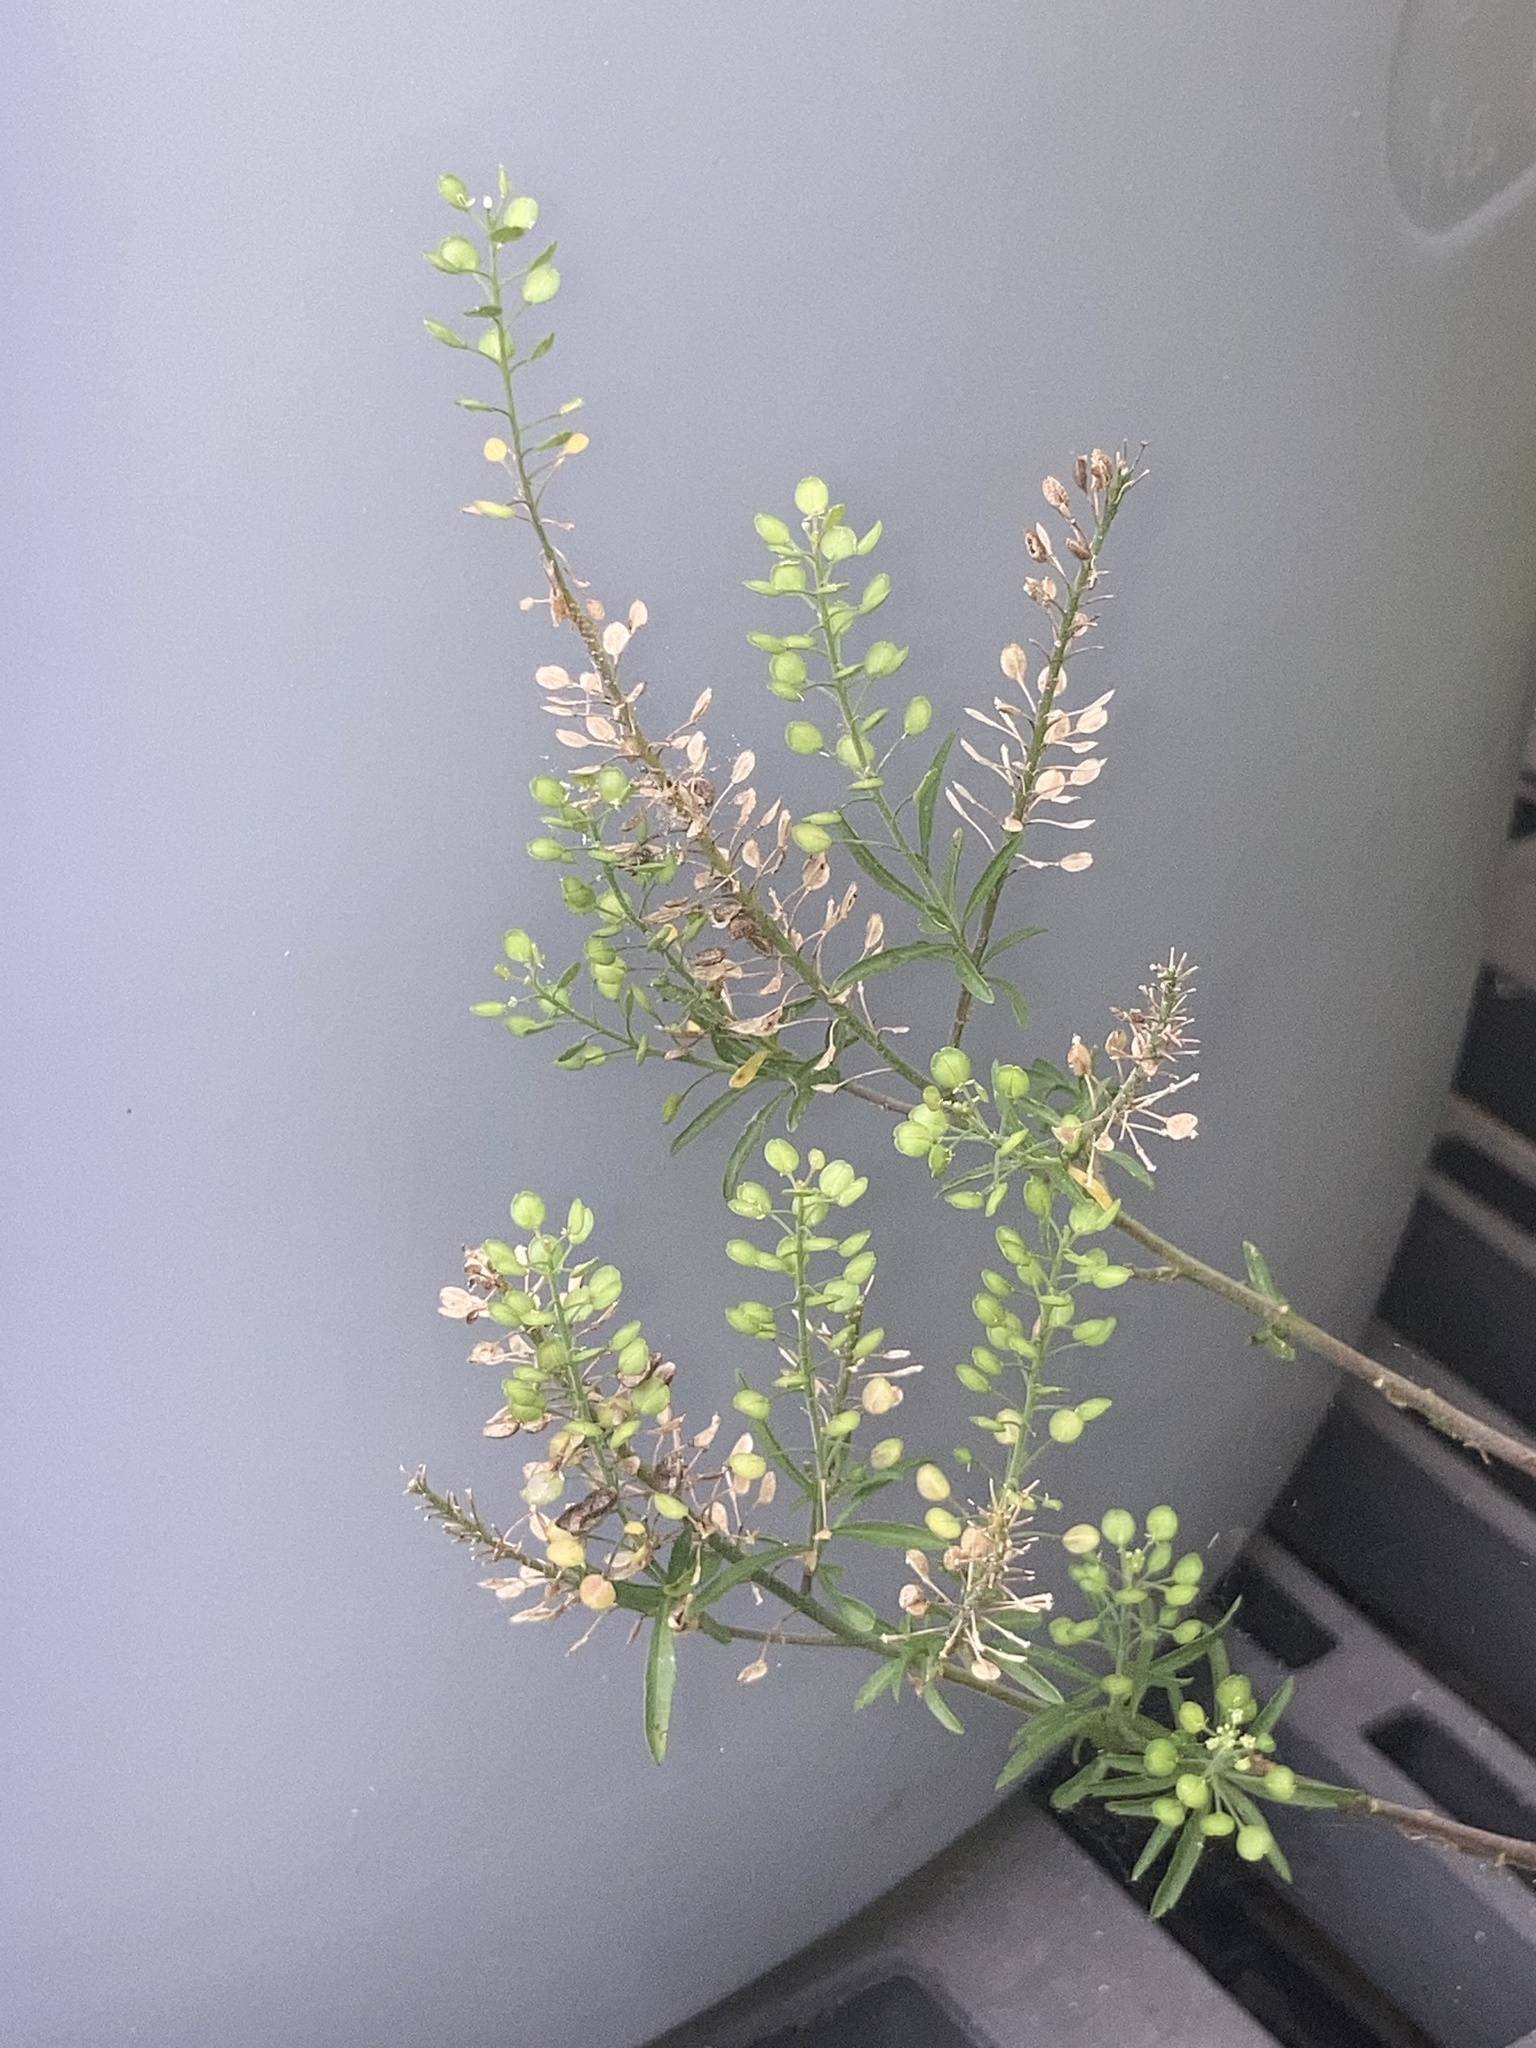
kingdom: Plantae
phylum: Tracheophyta
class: Magnoliopsida
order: Brassicales
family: Brassicaceae
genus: Lepidium
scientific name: Lepidium virginicum
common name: Least pepperwort
